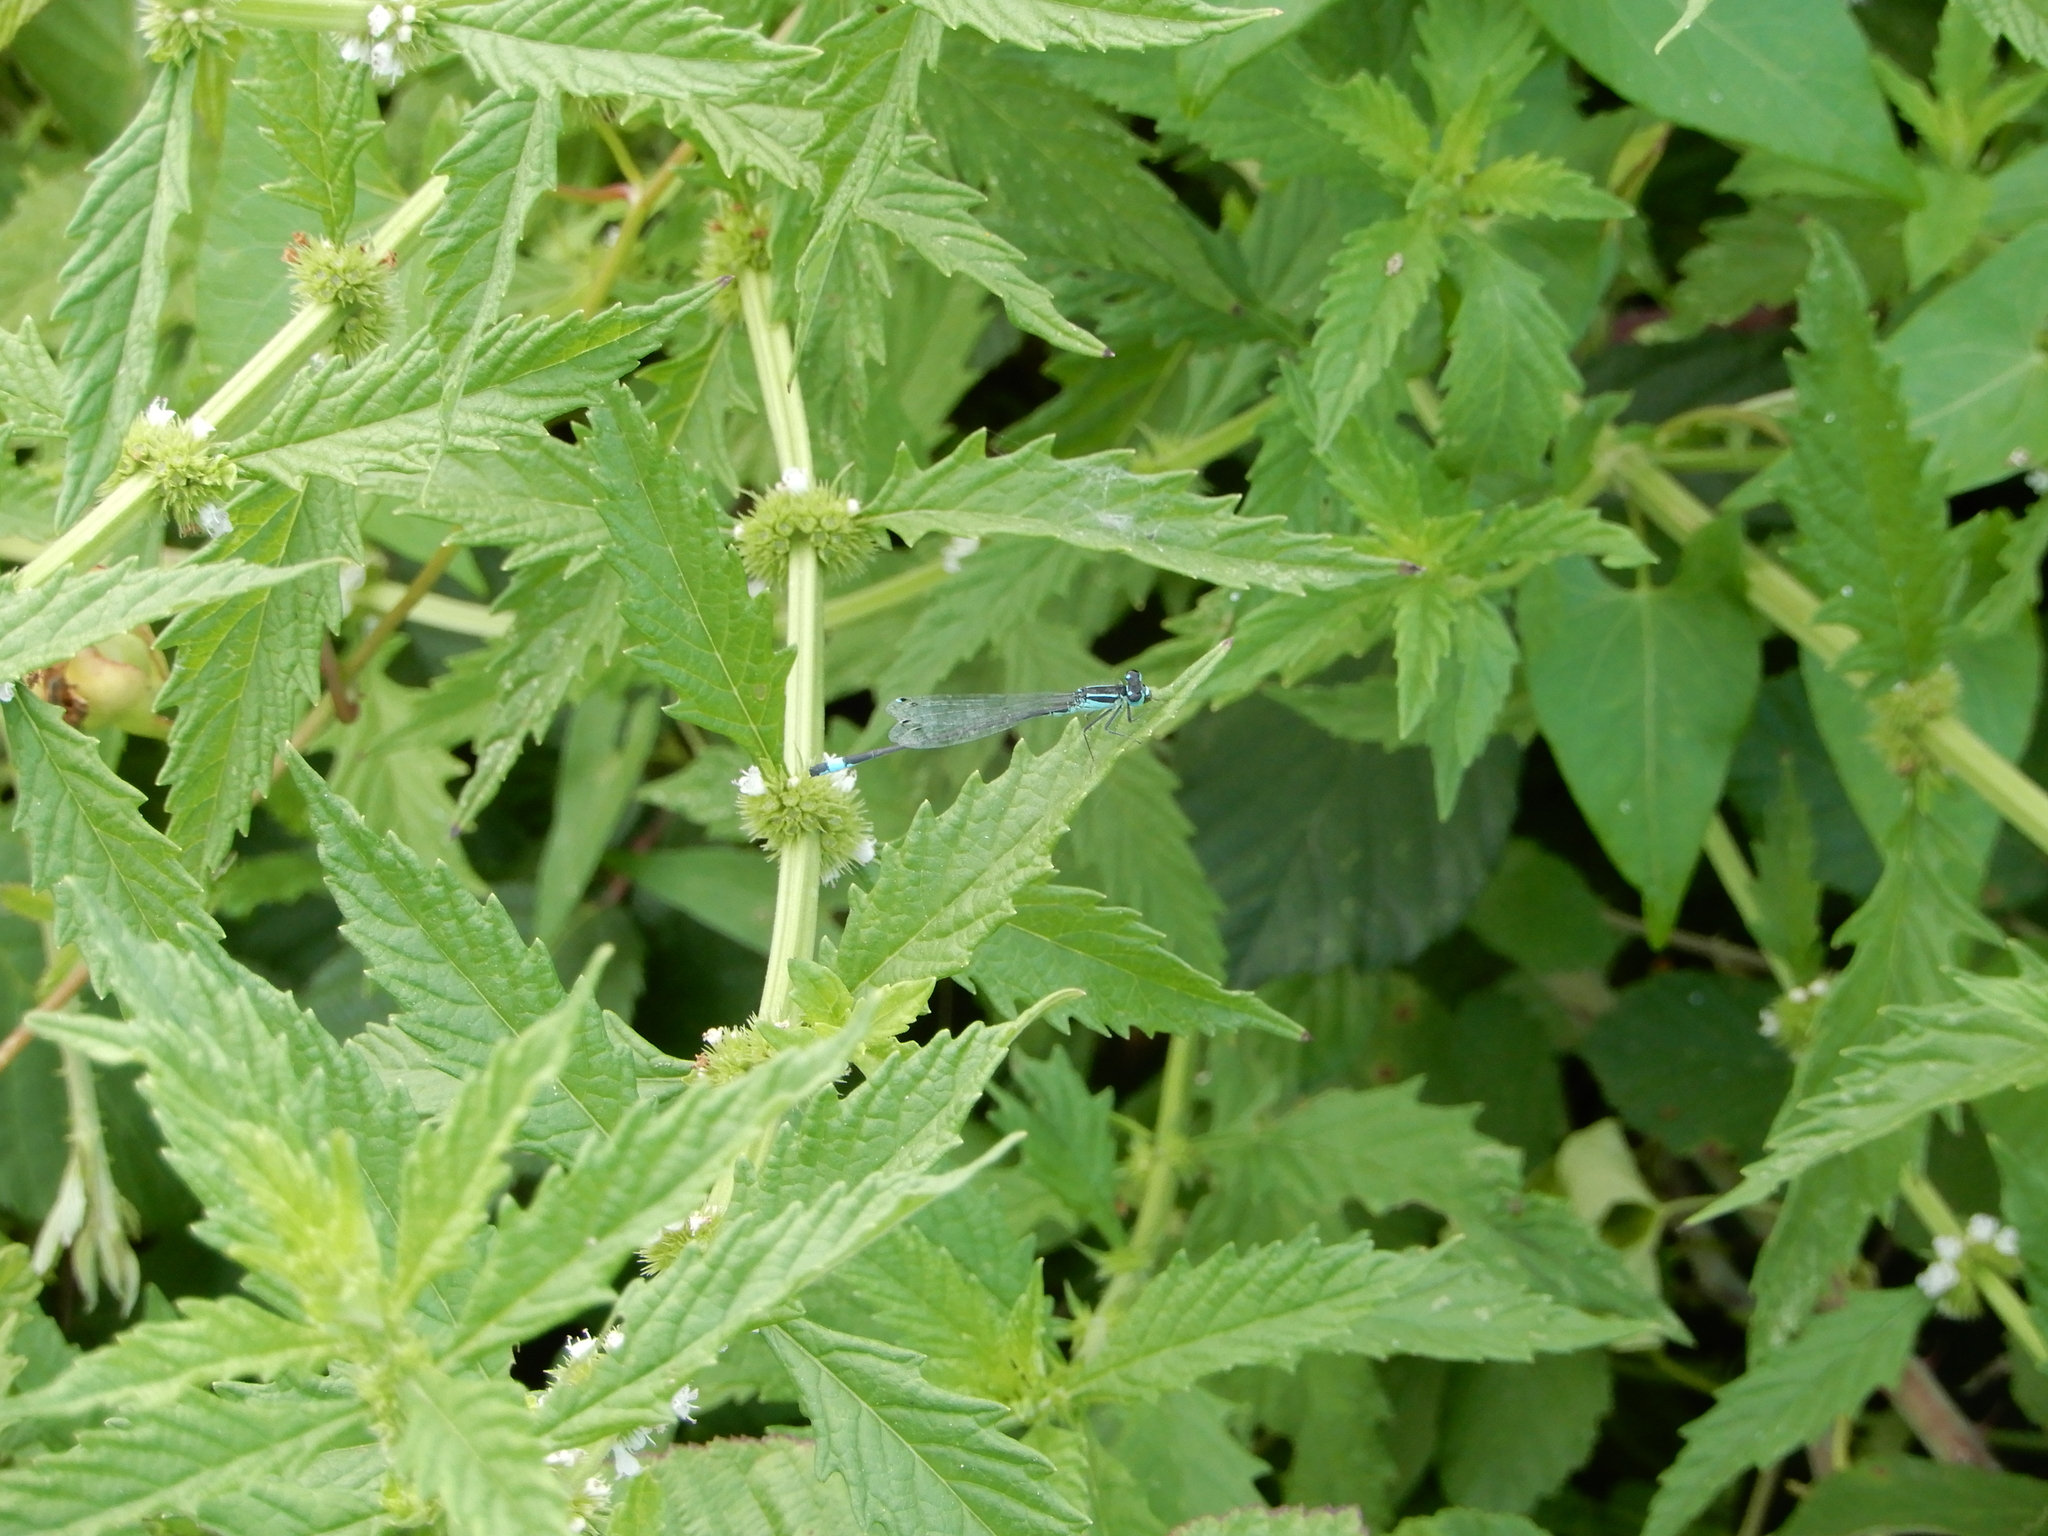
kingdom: Animalia
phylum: Arthropoda
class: Insecta
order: Odonata
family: Coenagrionidae
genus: Ischnura
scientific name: Ischnura elegans
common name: Blue-tailed damselfly
